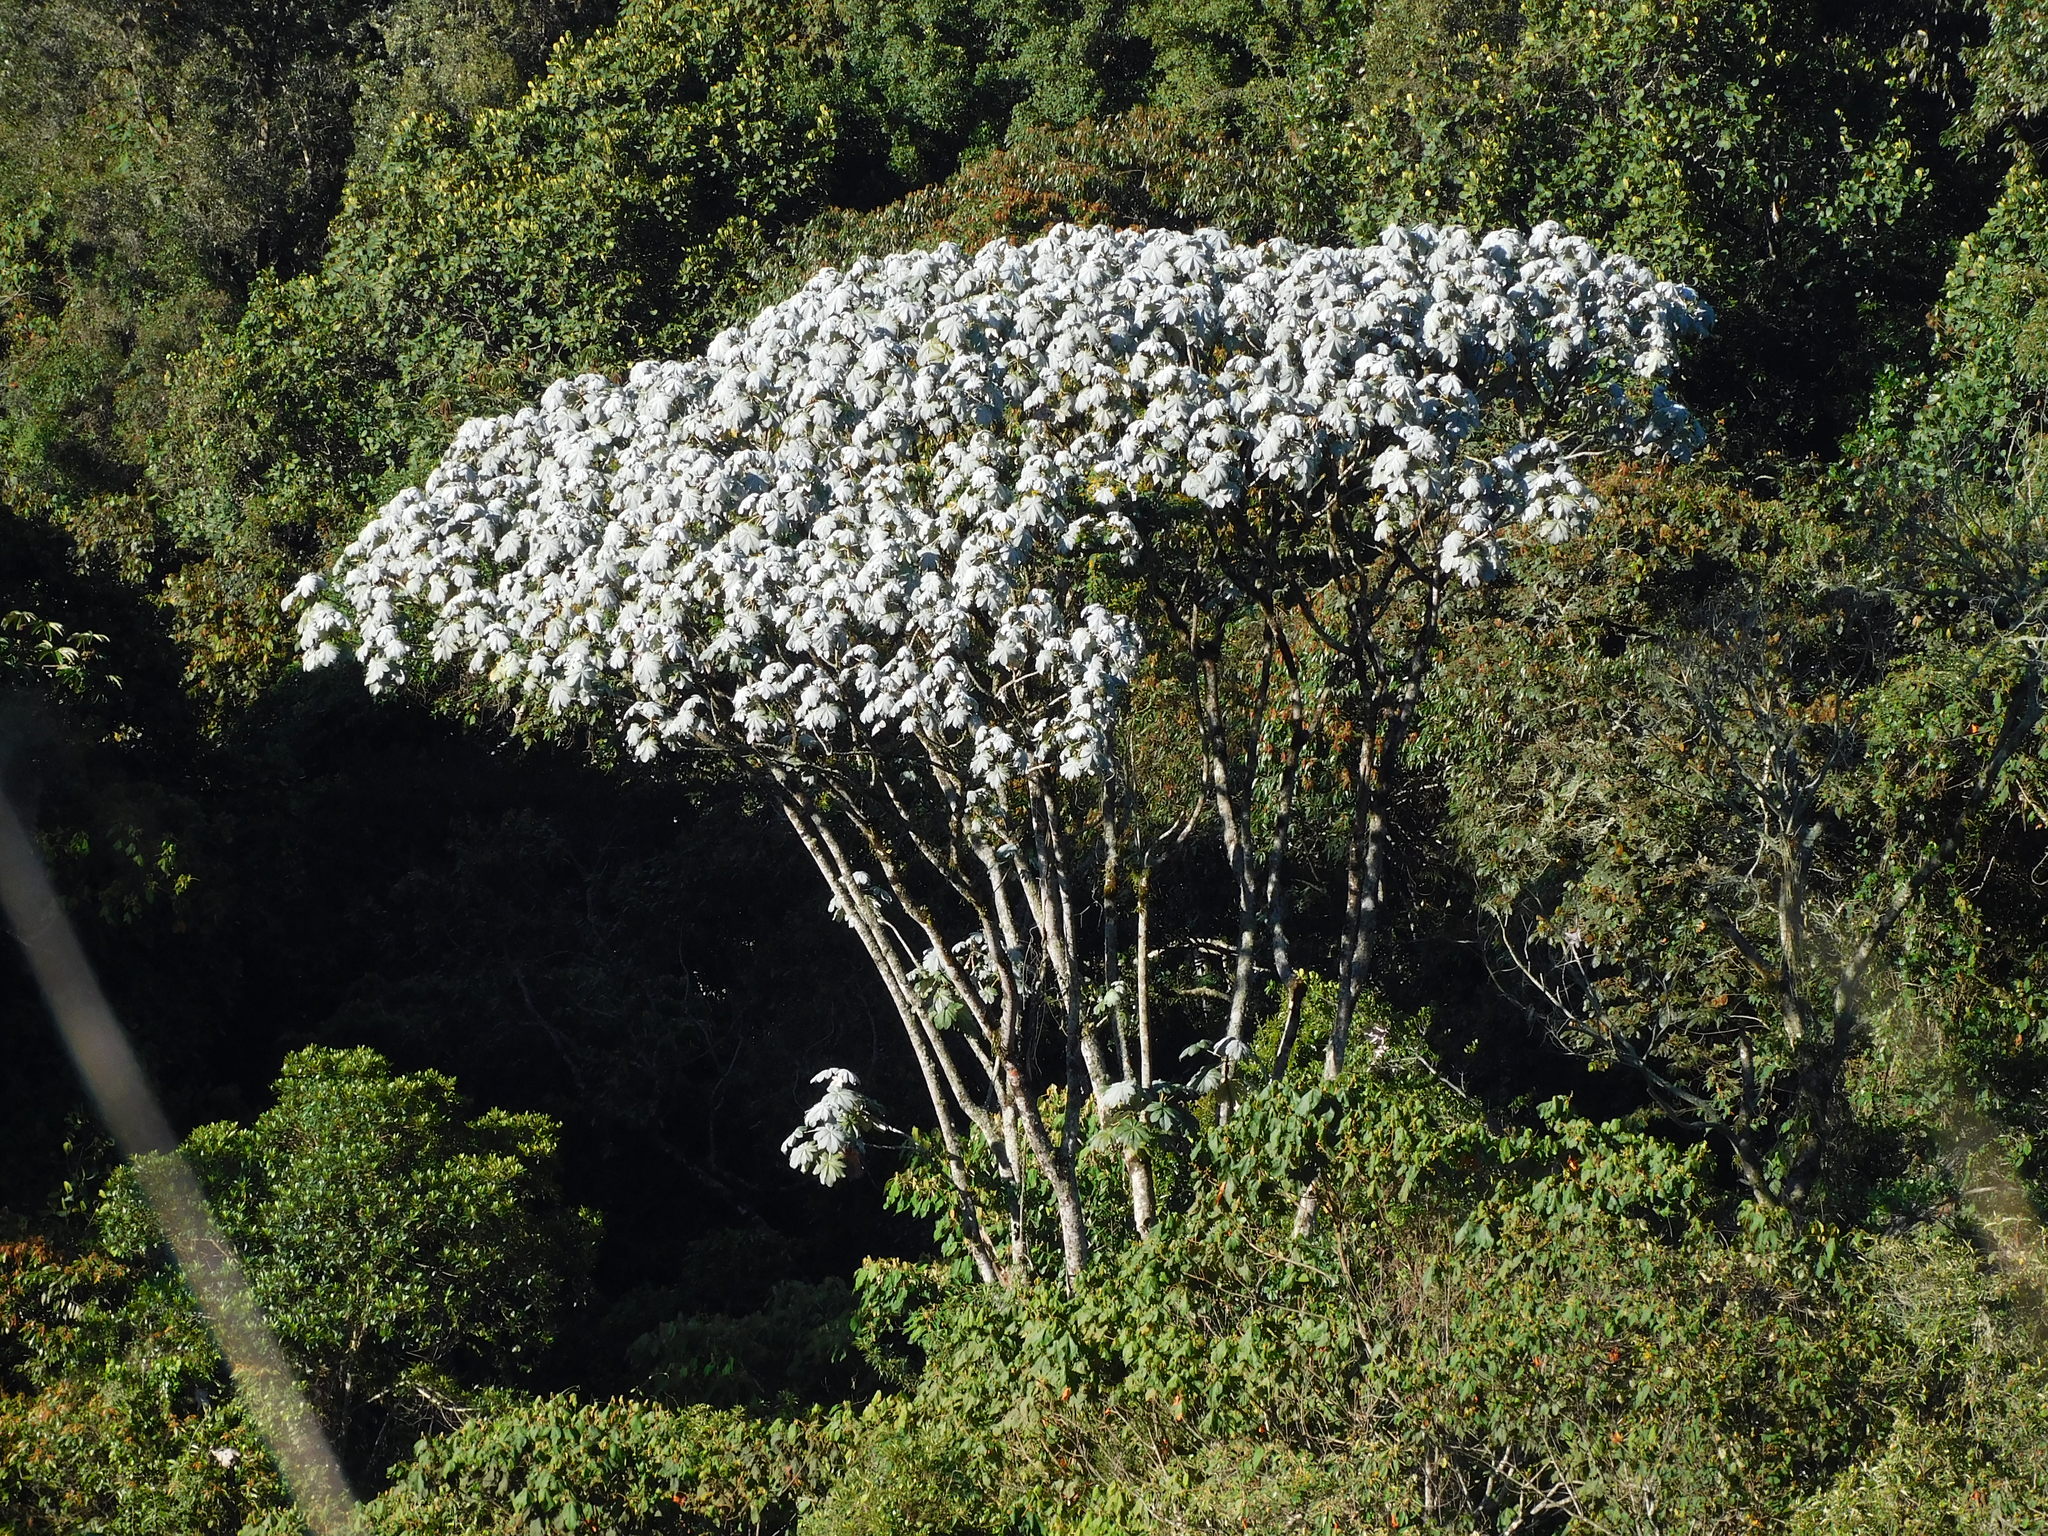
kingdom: Plantae
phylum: Tracheophyta
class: Magnoliopsida
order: Rosales
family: Urticaceae
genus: Cecropia
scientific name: Cecropia telenitida
